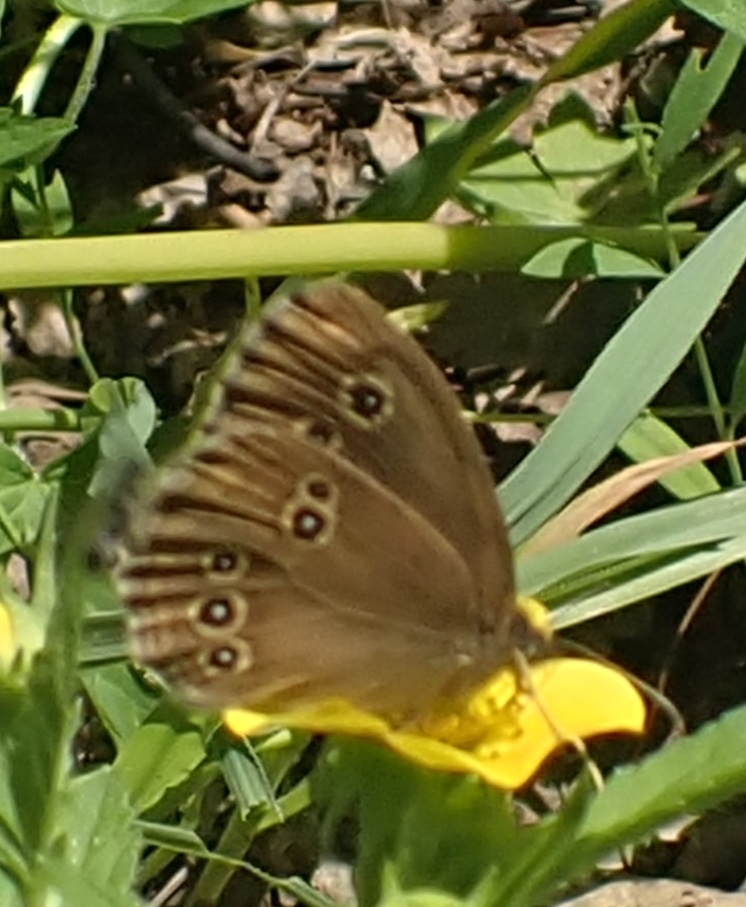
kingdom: Animalia
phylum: Arthropoda
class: Insecta
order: Lepidoptera
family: Nymphalidae
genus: Aphantopus
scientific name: Aphantopus hyperantus
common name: Ringlet
